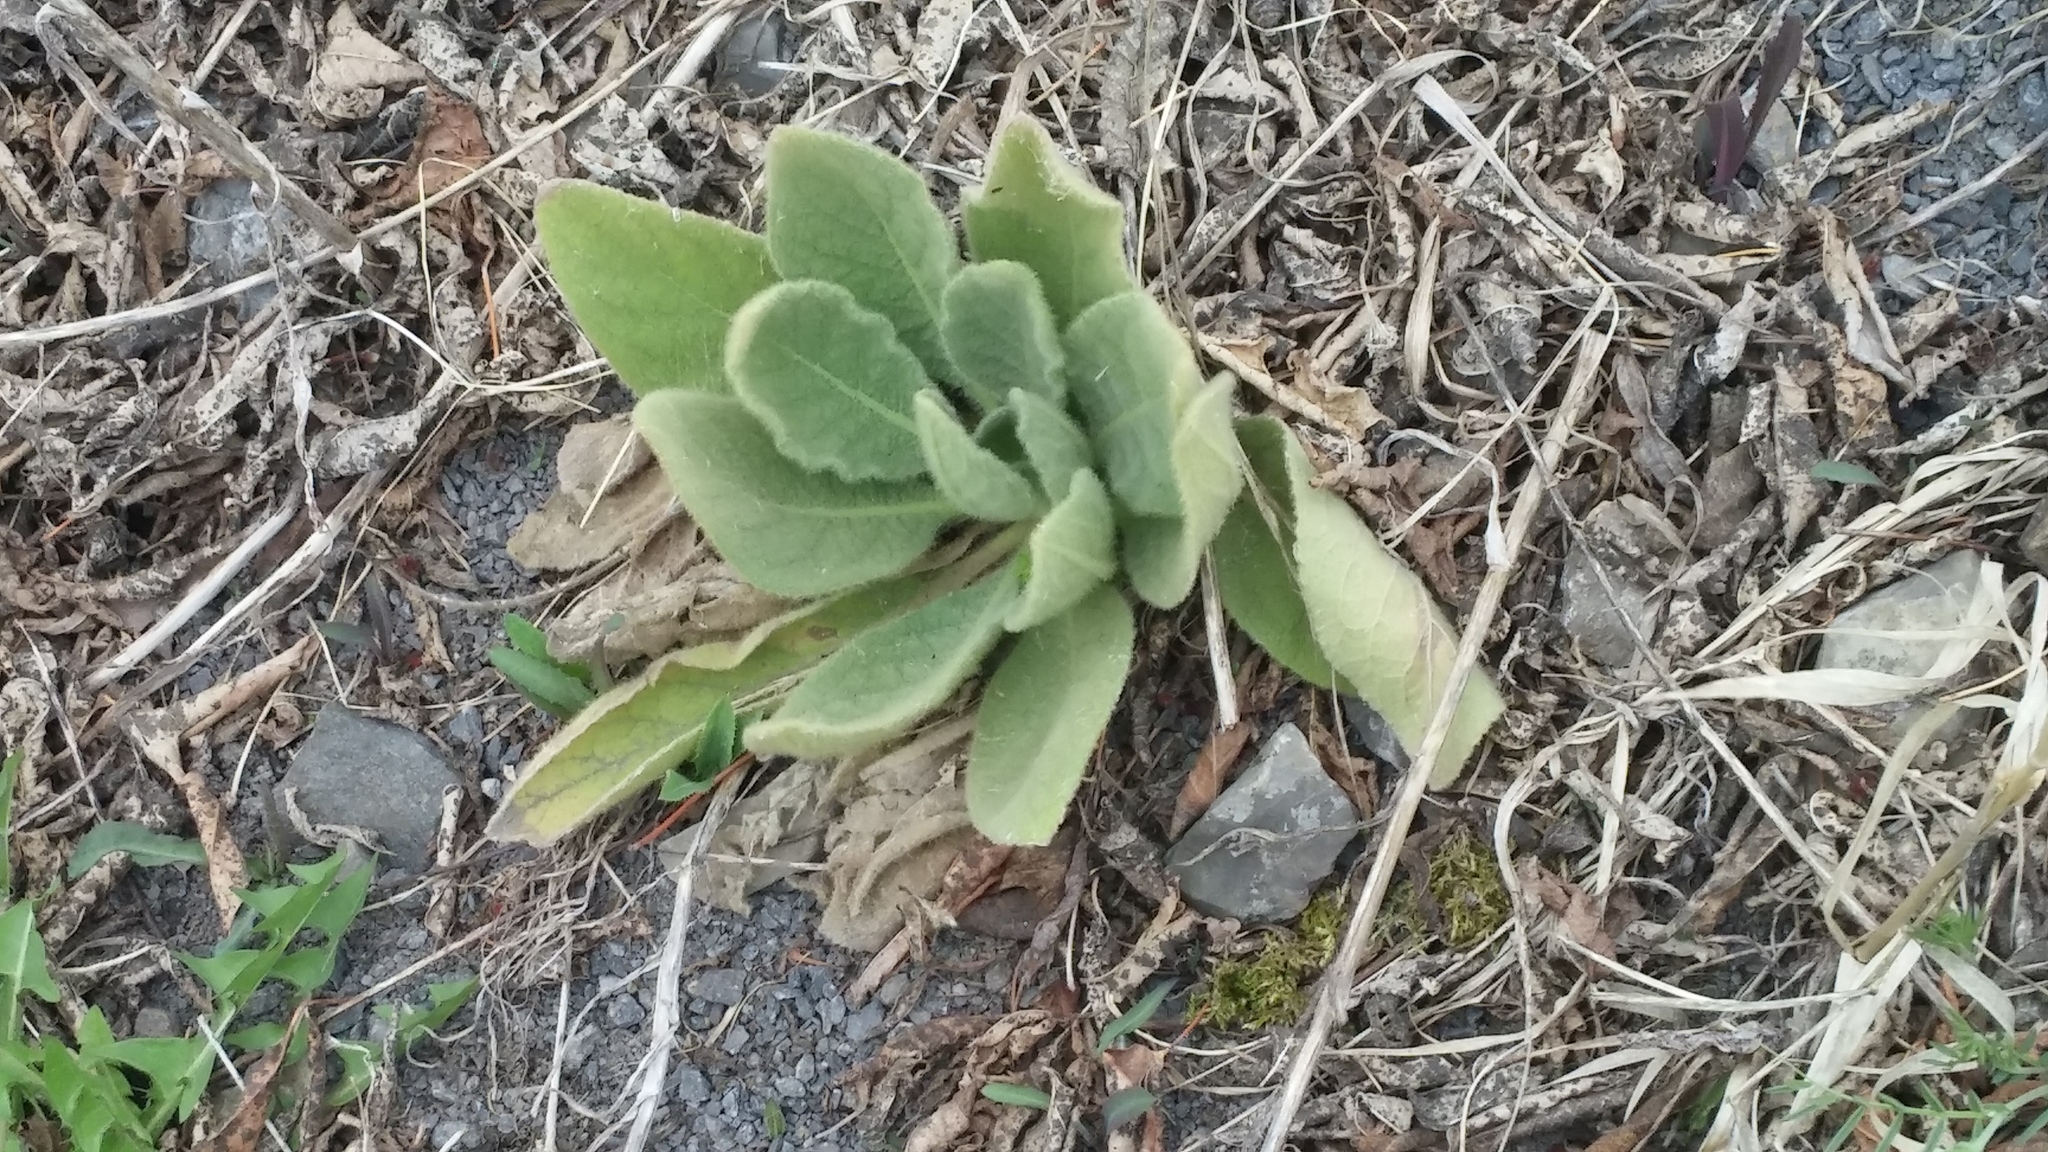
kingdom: Plantae
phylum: Tracheophyta
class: Magnoliopsida
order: Lamiales
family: Scrophulariaceae
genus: Verbascum
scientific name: Verbascum thapsus
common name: Common mullein
